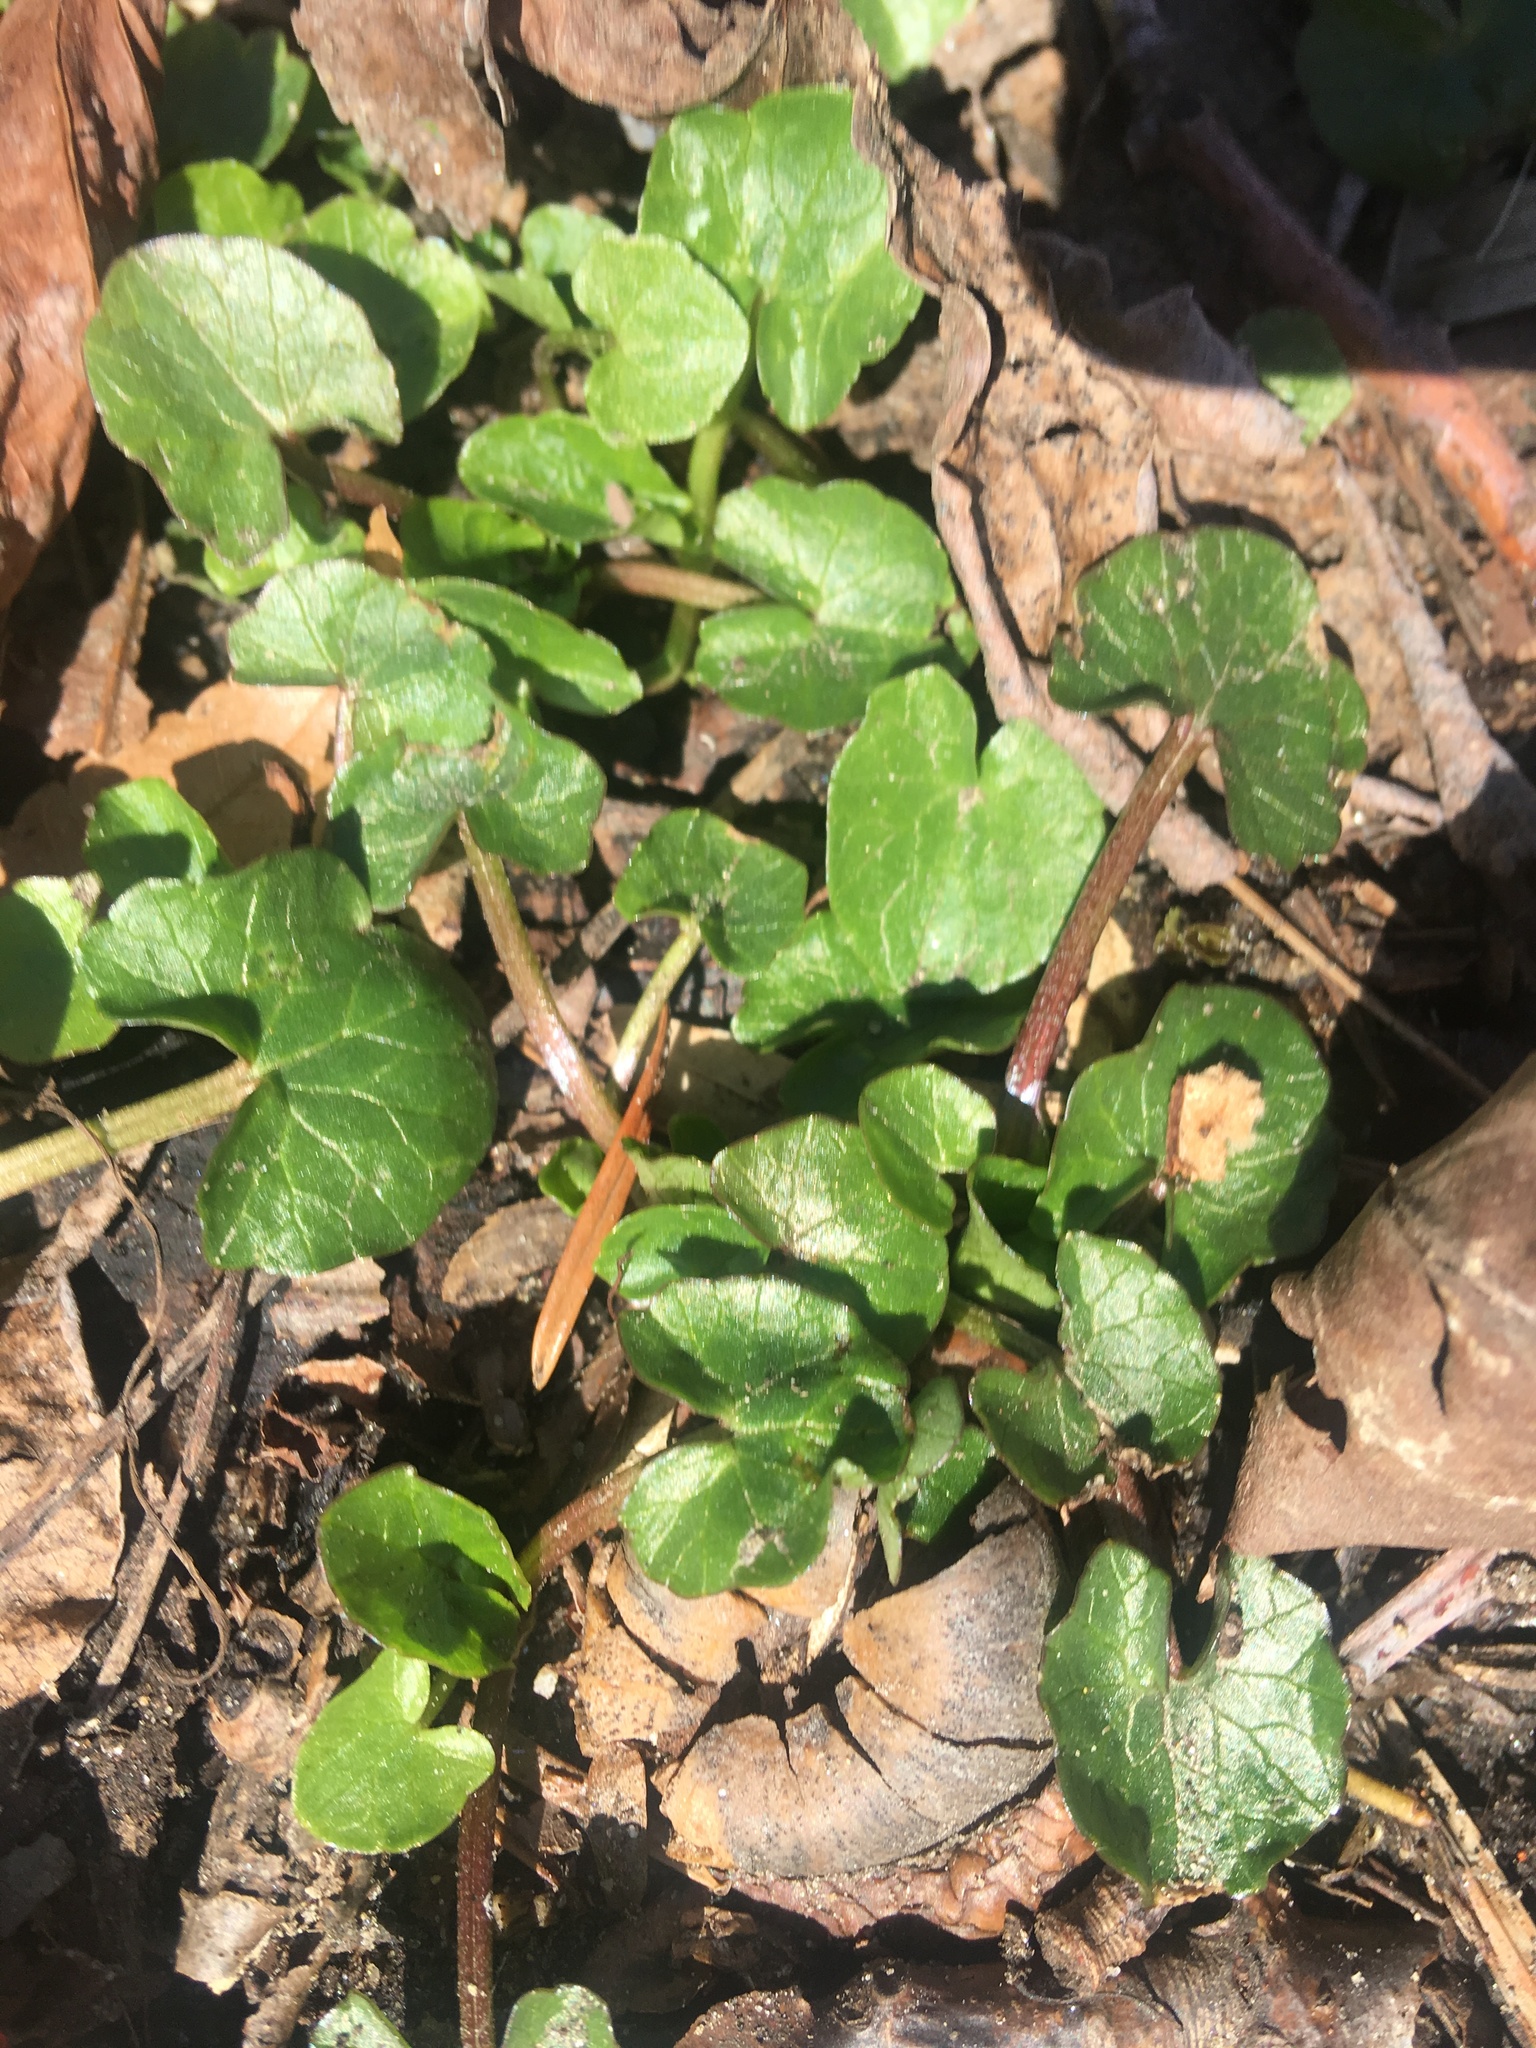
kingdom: Plantae
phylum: Tracheophyta
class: Magnoliopsida
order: Ranunculales
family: Ranunculaceae
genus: Ficaria
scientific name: Ficaria verna
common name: Lesser celandine
